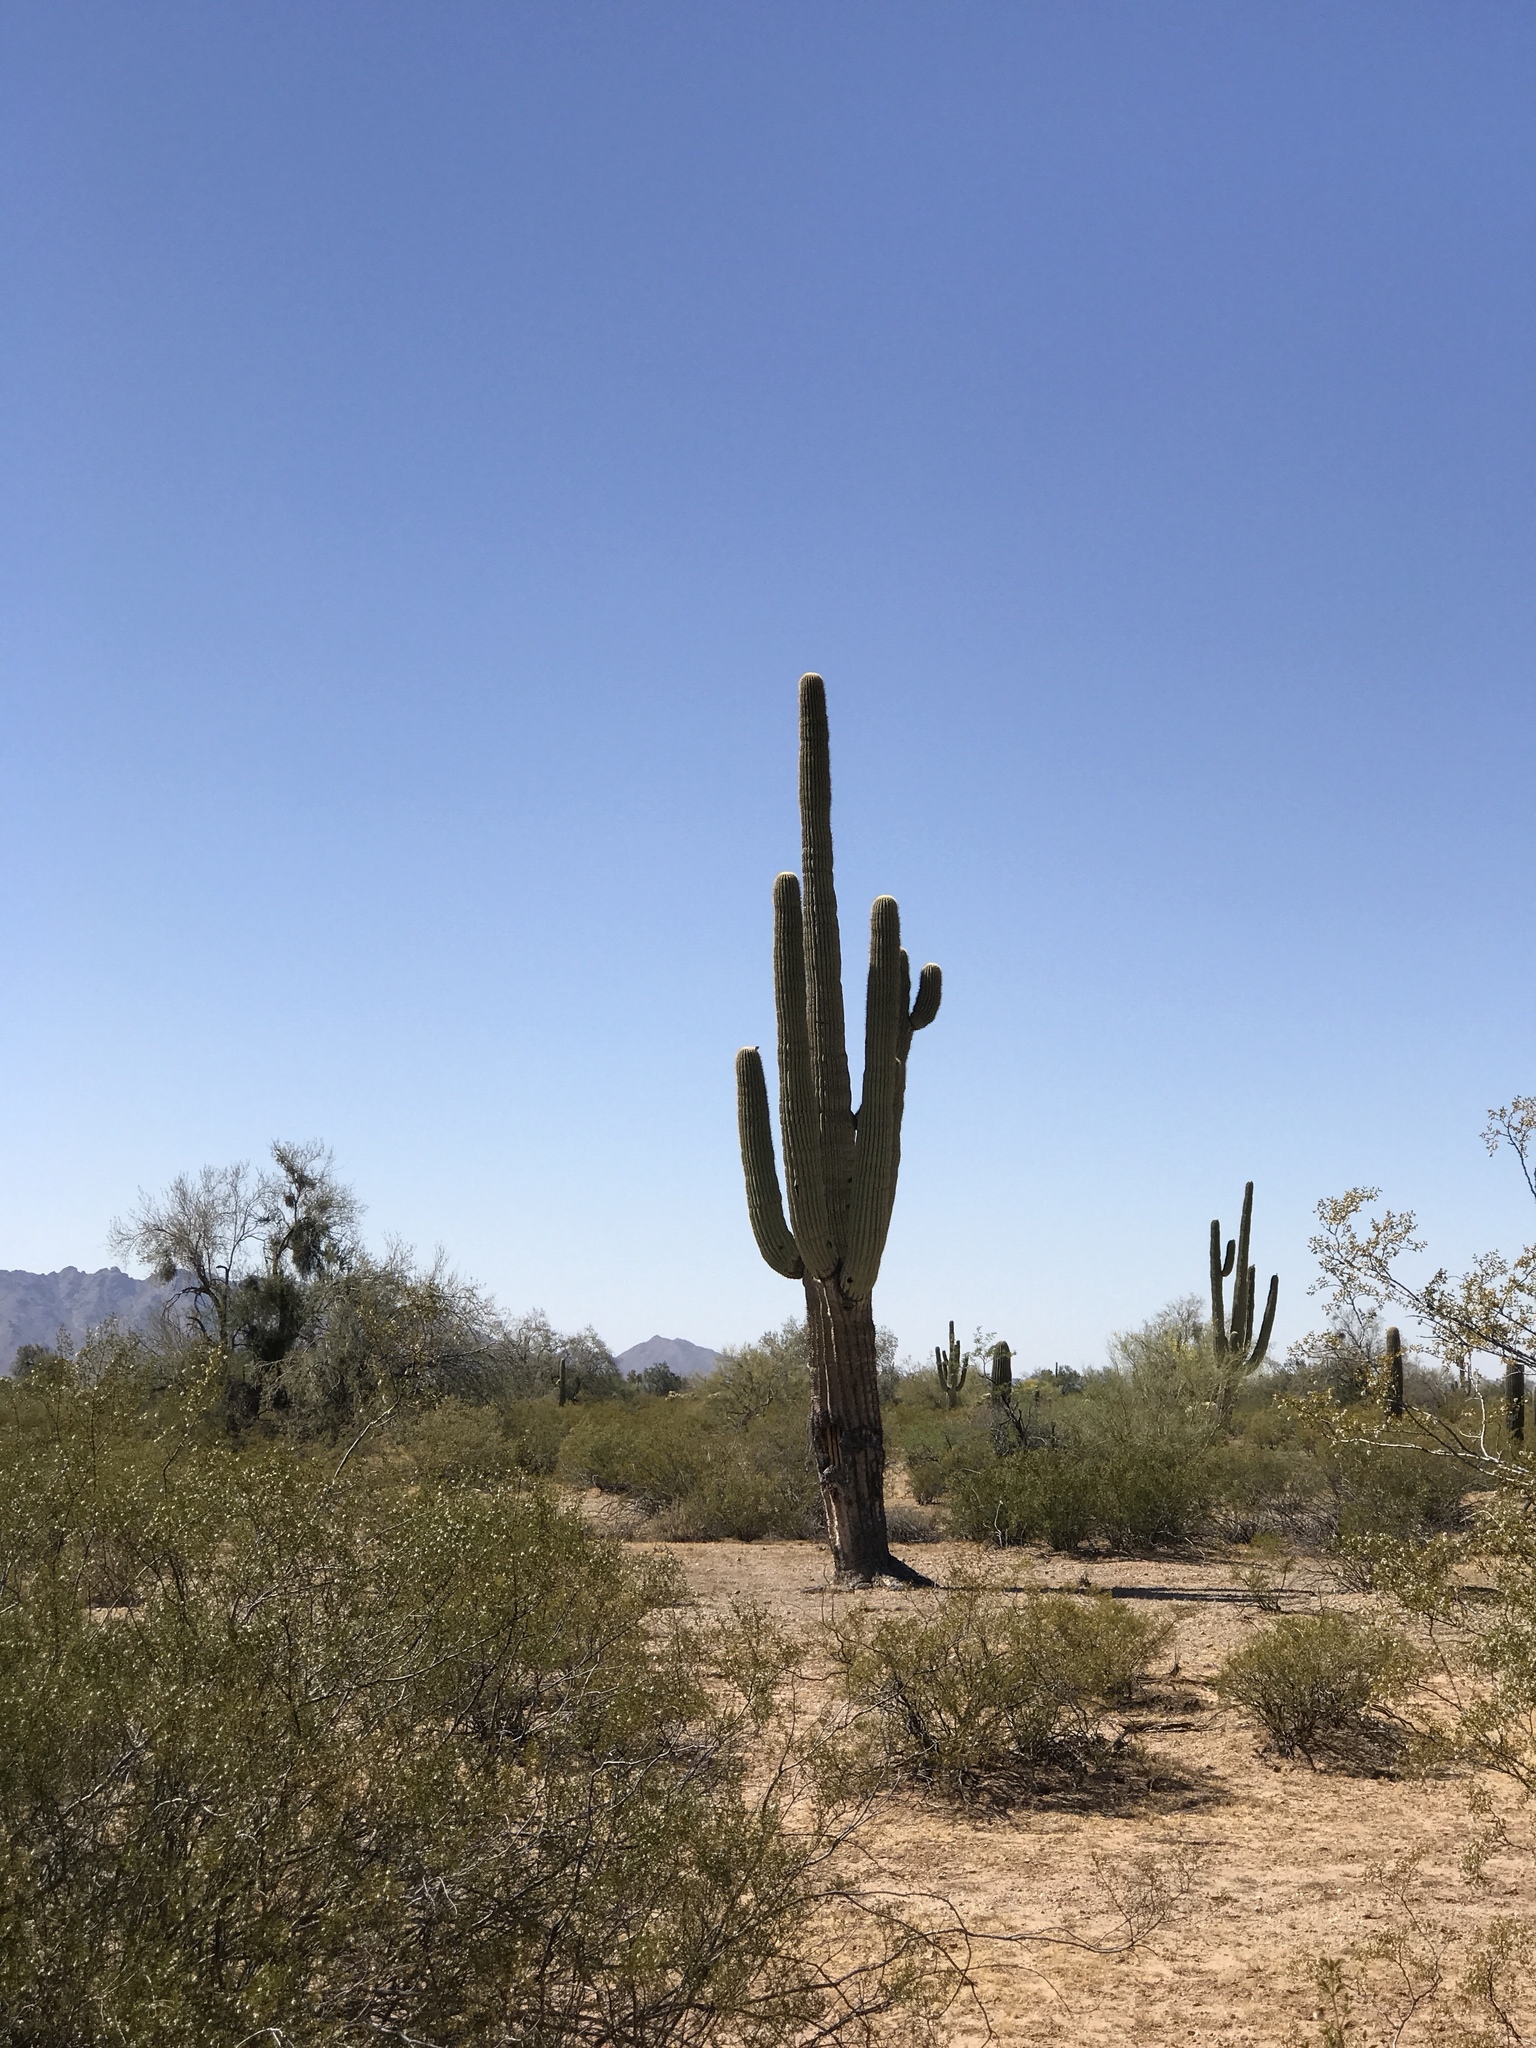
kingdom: Plantae
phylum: Tracheophyta
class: Magnoliopsida
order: Caryophyllales
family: Cactaceae
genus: Carnegiea
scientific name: Carnegiea gigantea
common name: Saguaro
